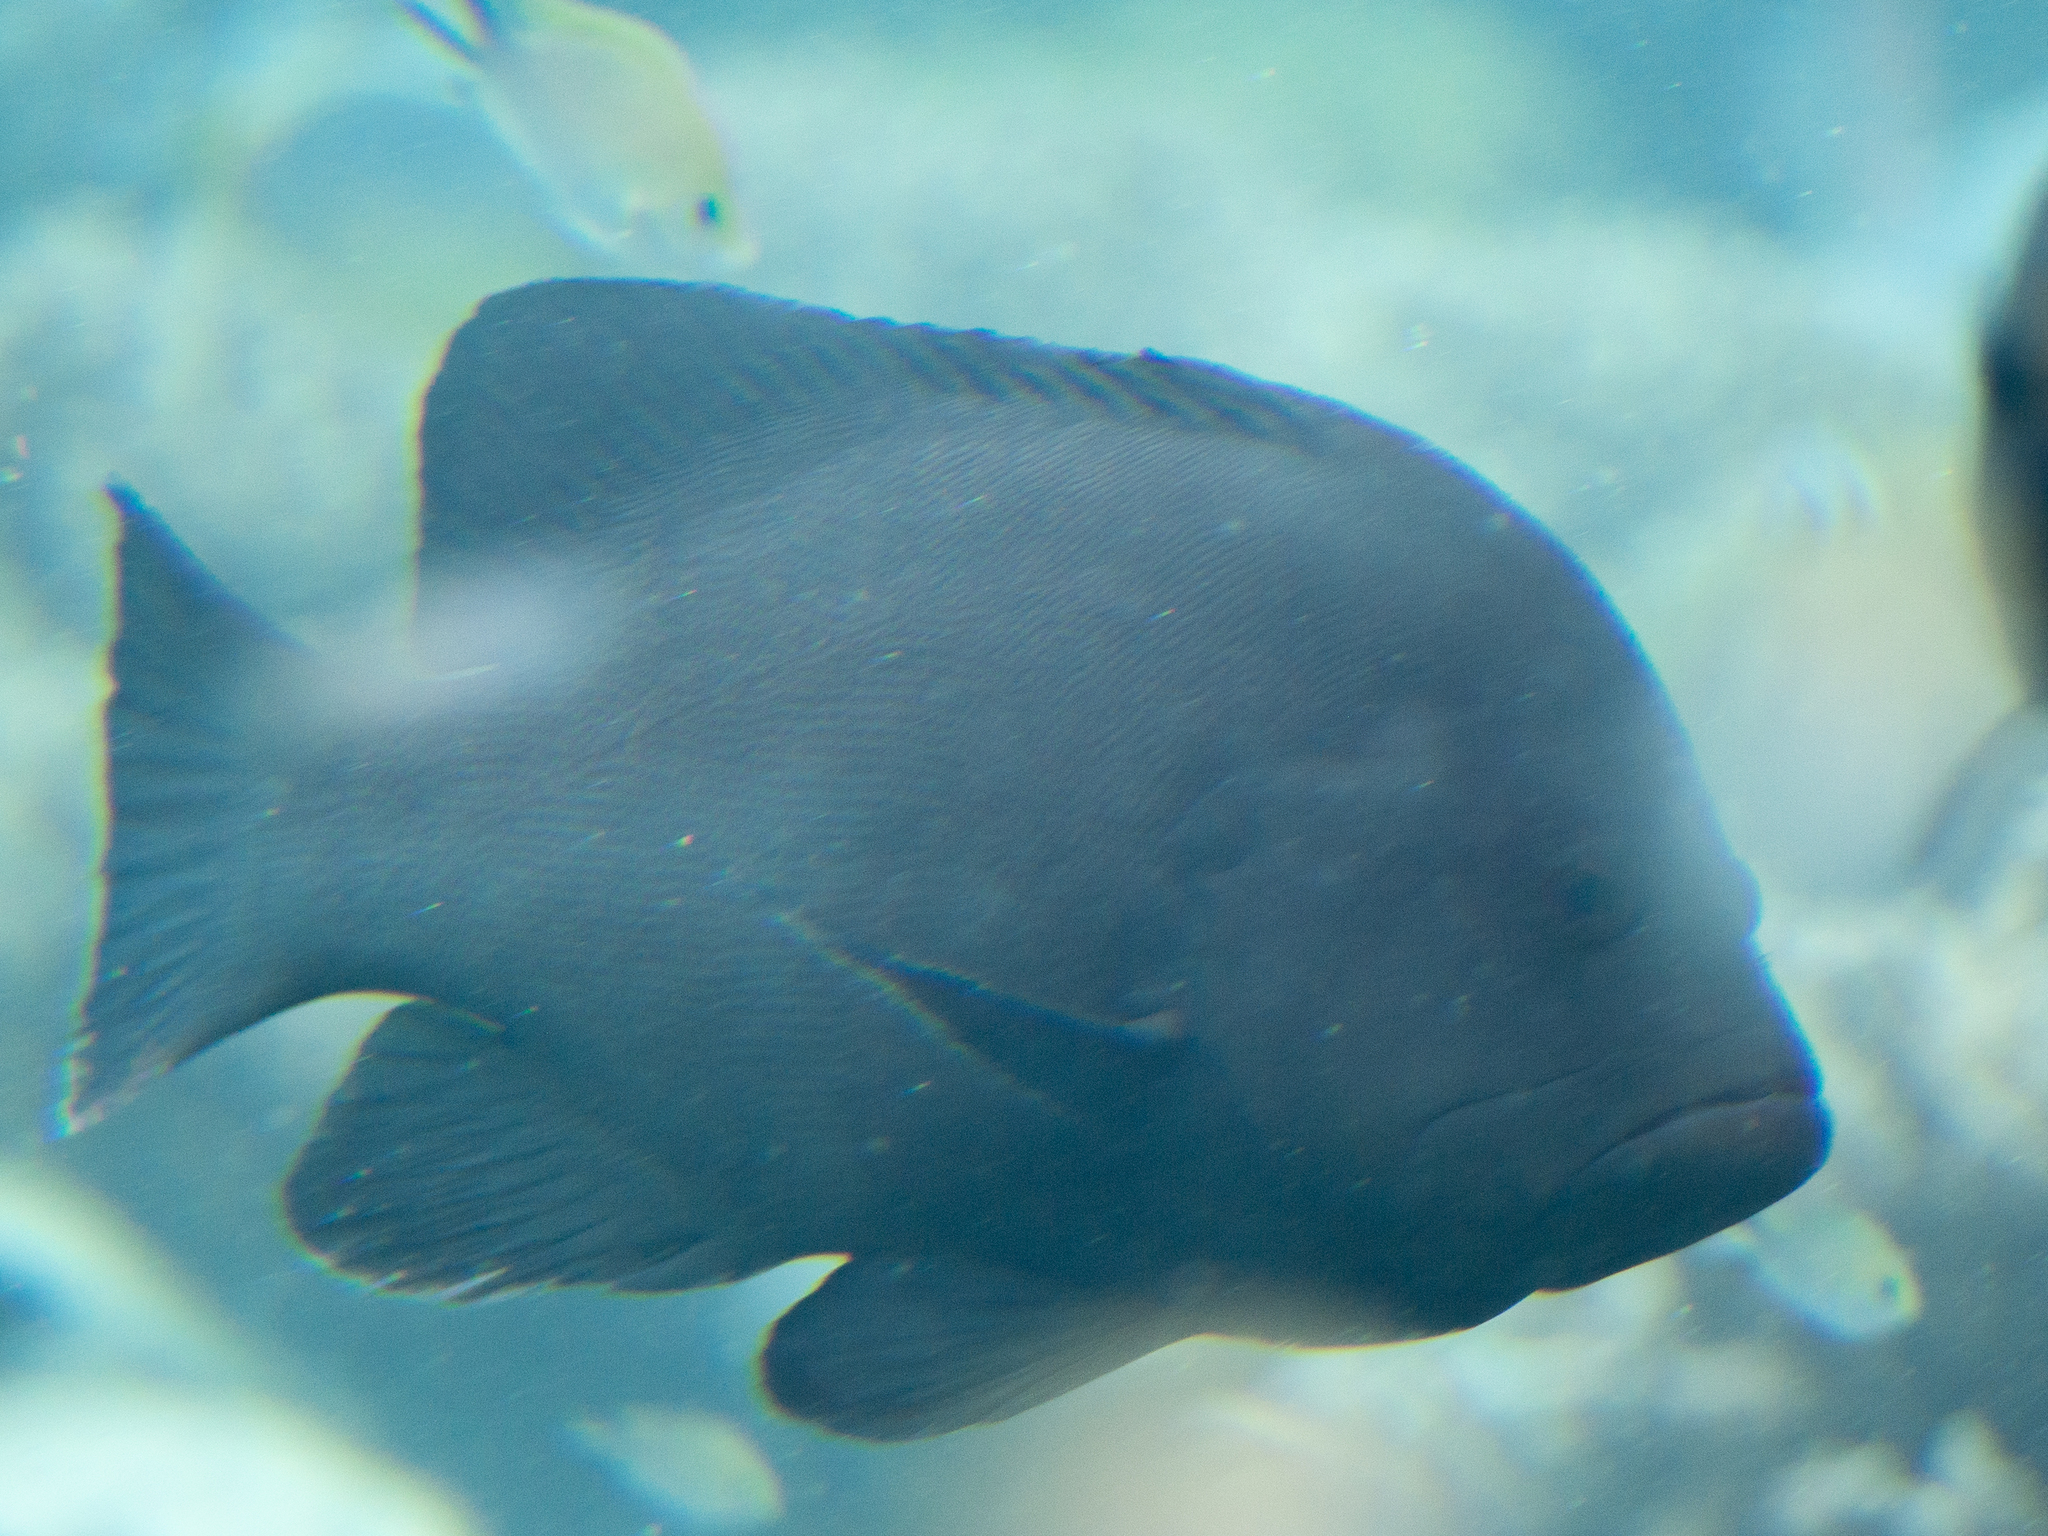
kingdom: Animalia
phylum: Chordata
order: Perciformes
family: Serranidae
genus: Aethaloperca
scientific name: Aethaloperca rogaa
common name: Redmouth grouper
